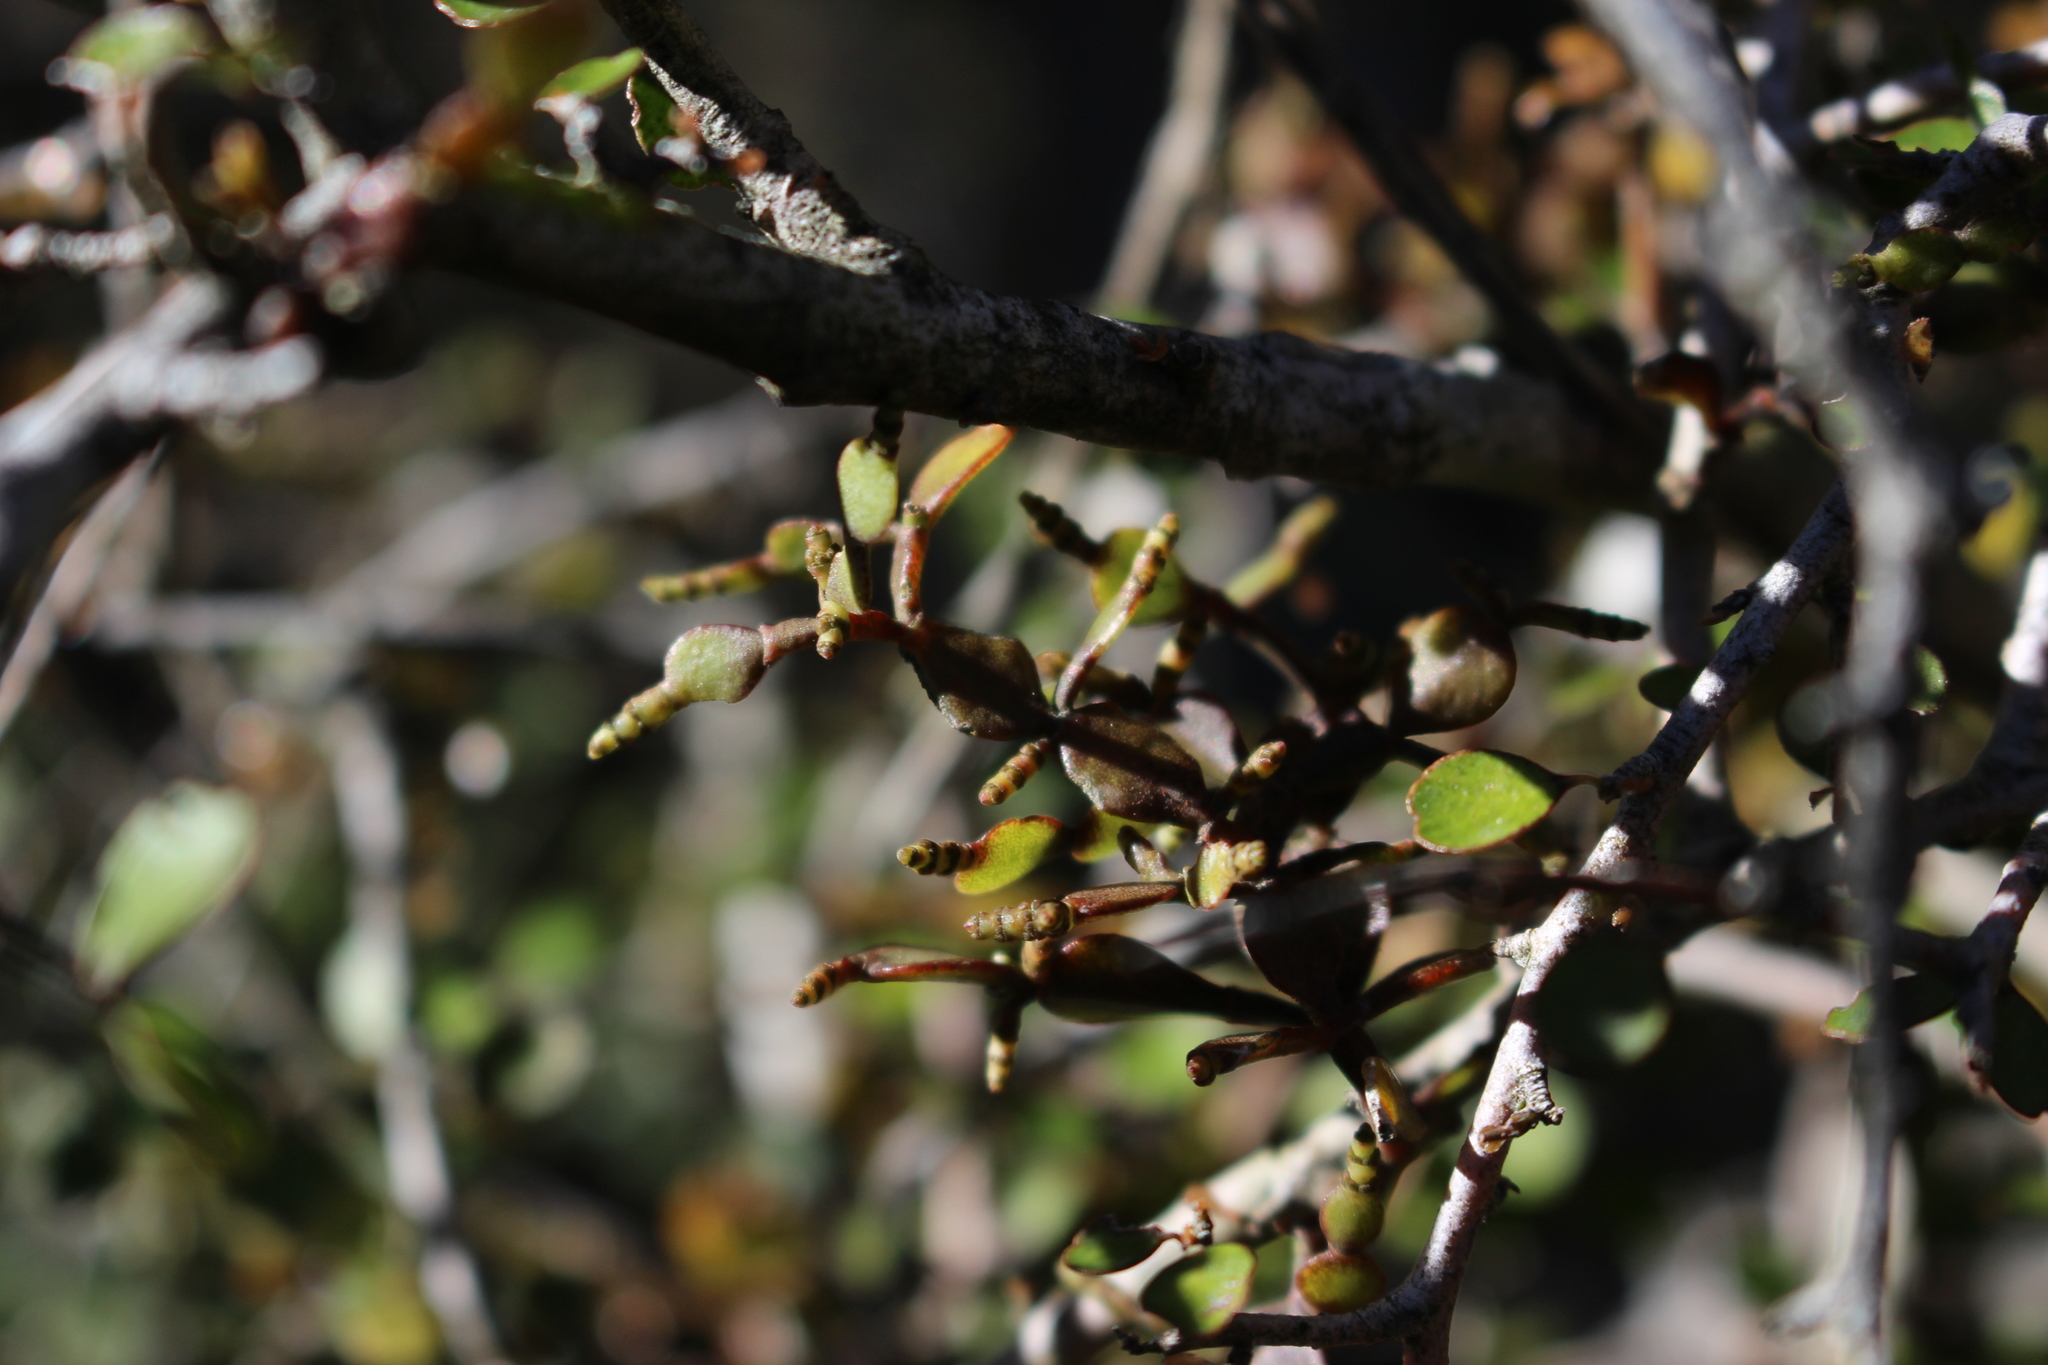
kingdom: Plantae
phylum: Tracheophyta
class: Magnoliopsida
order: Santalales
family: Viscaceae
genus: Korthalsella
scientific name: Korthalsella lindsayi
